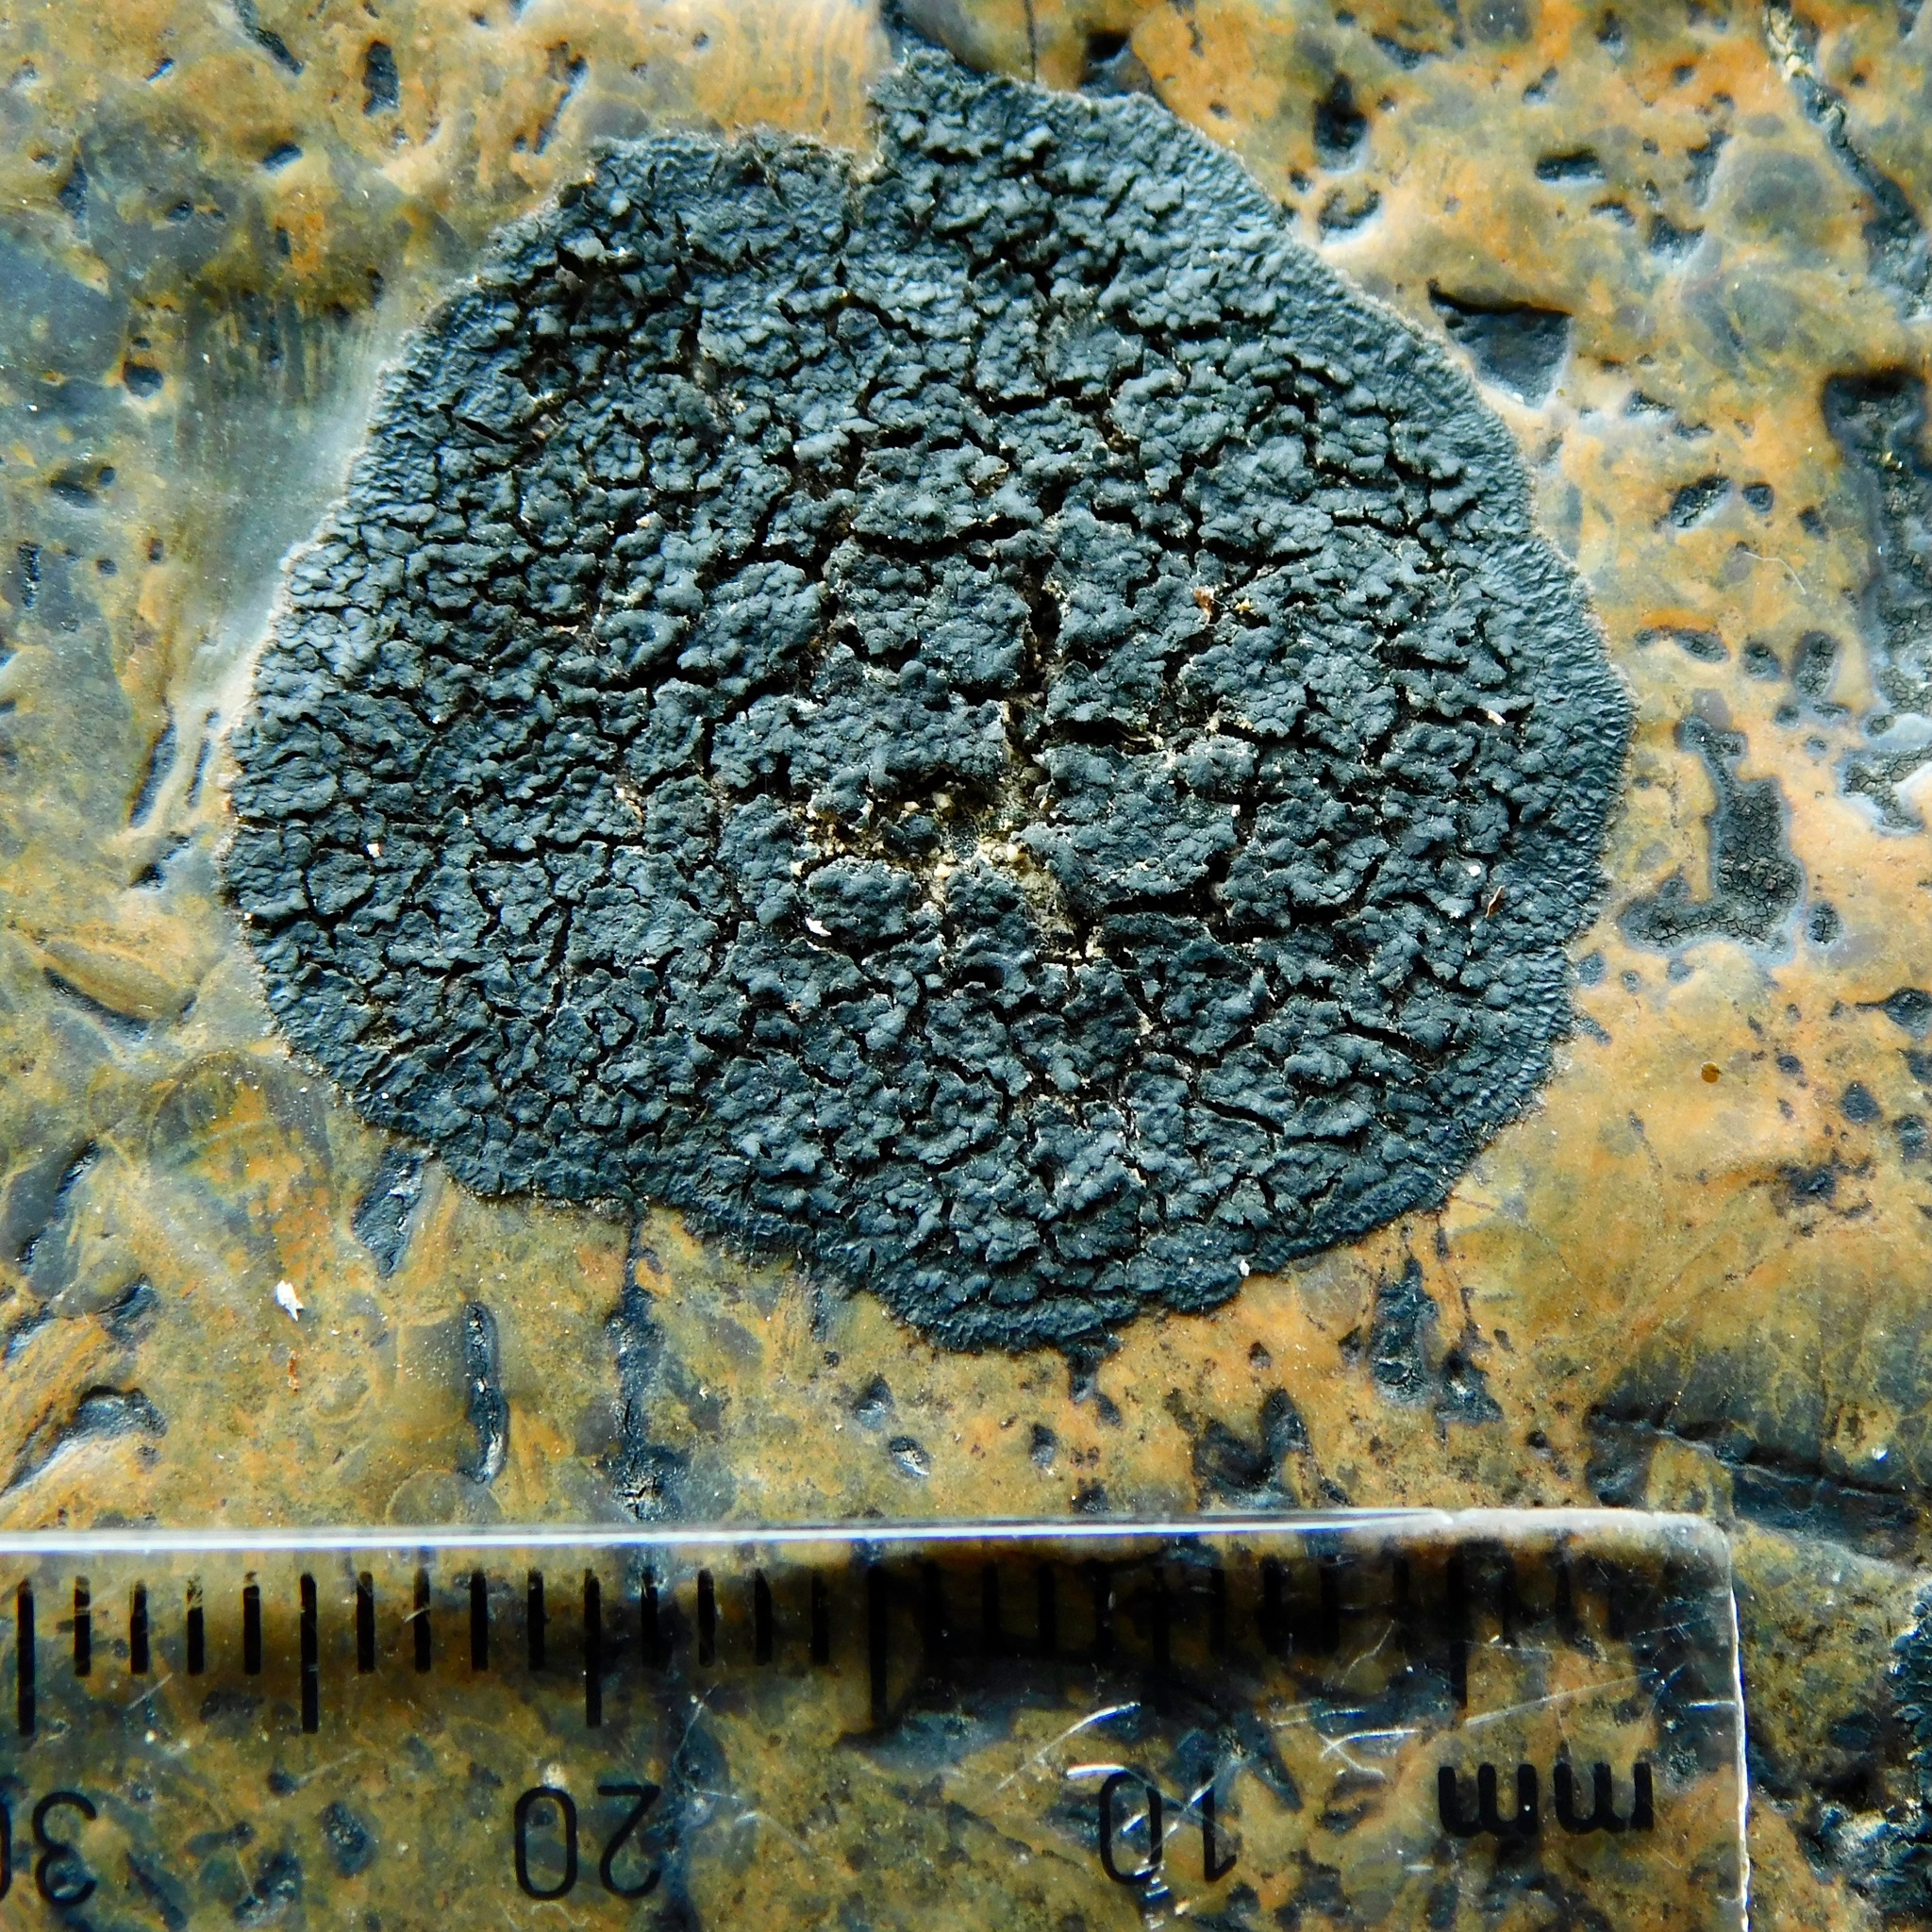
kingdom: Fungi
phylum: Ascomycota
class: Eurotiomycetes
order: Verrucariales
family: Verrucariaceae
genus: Verrucaria
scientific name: Verrucaria epimaura
